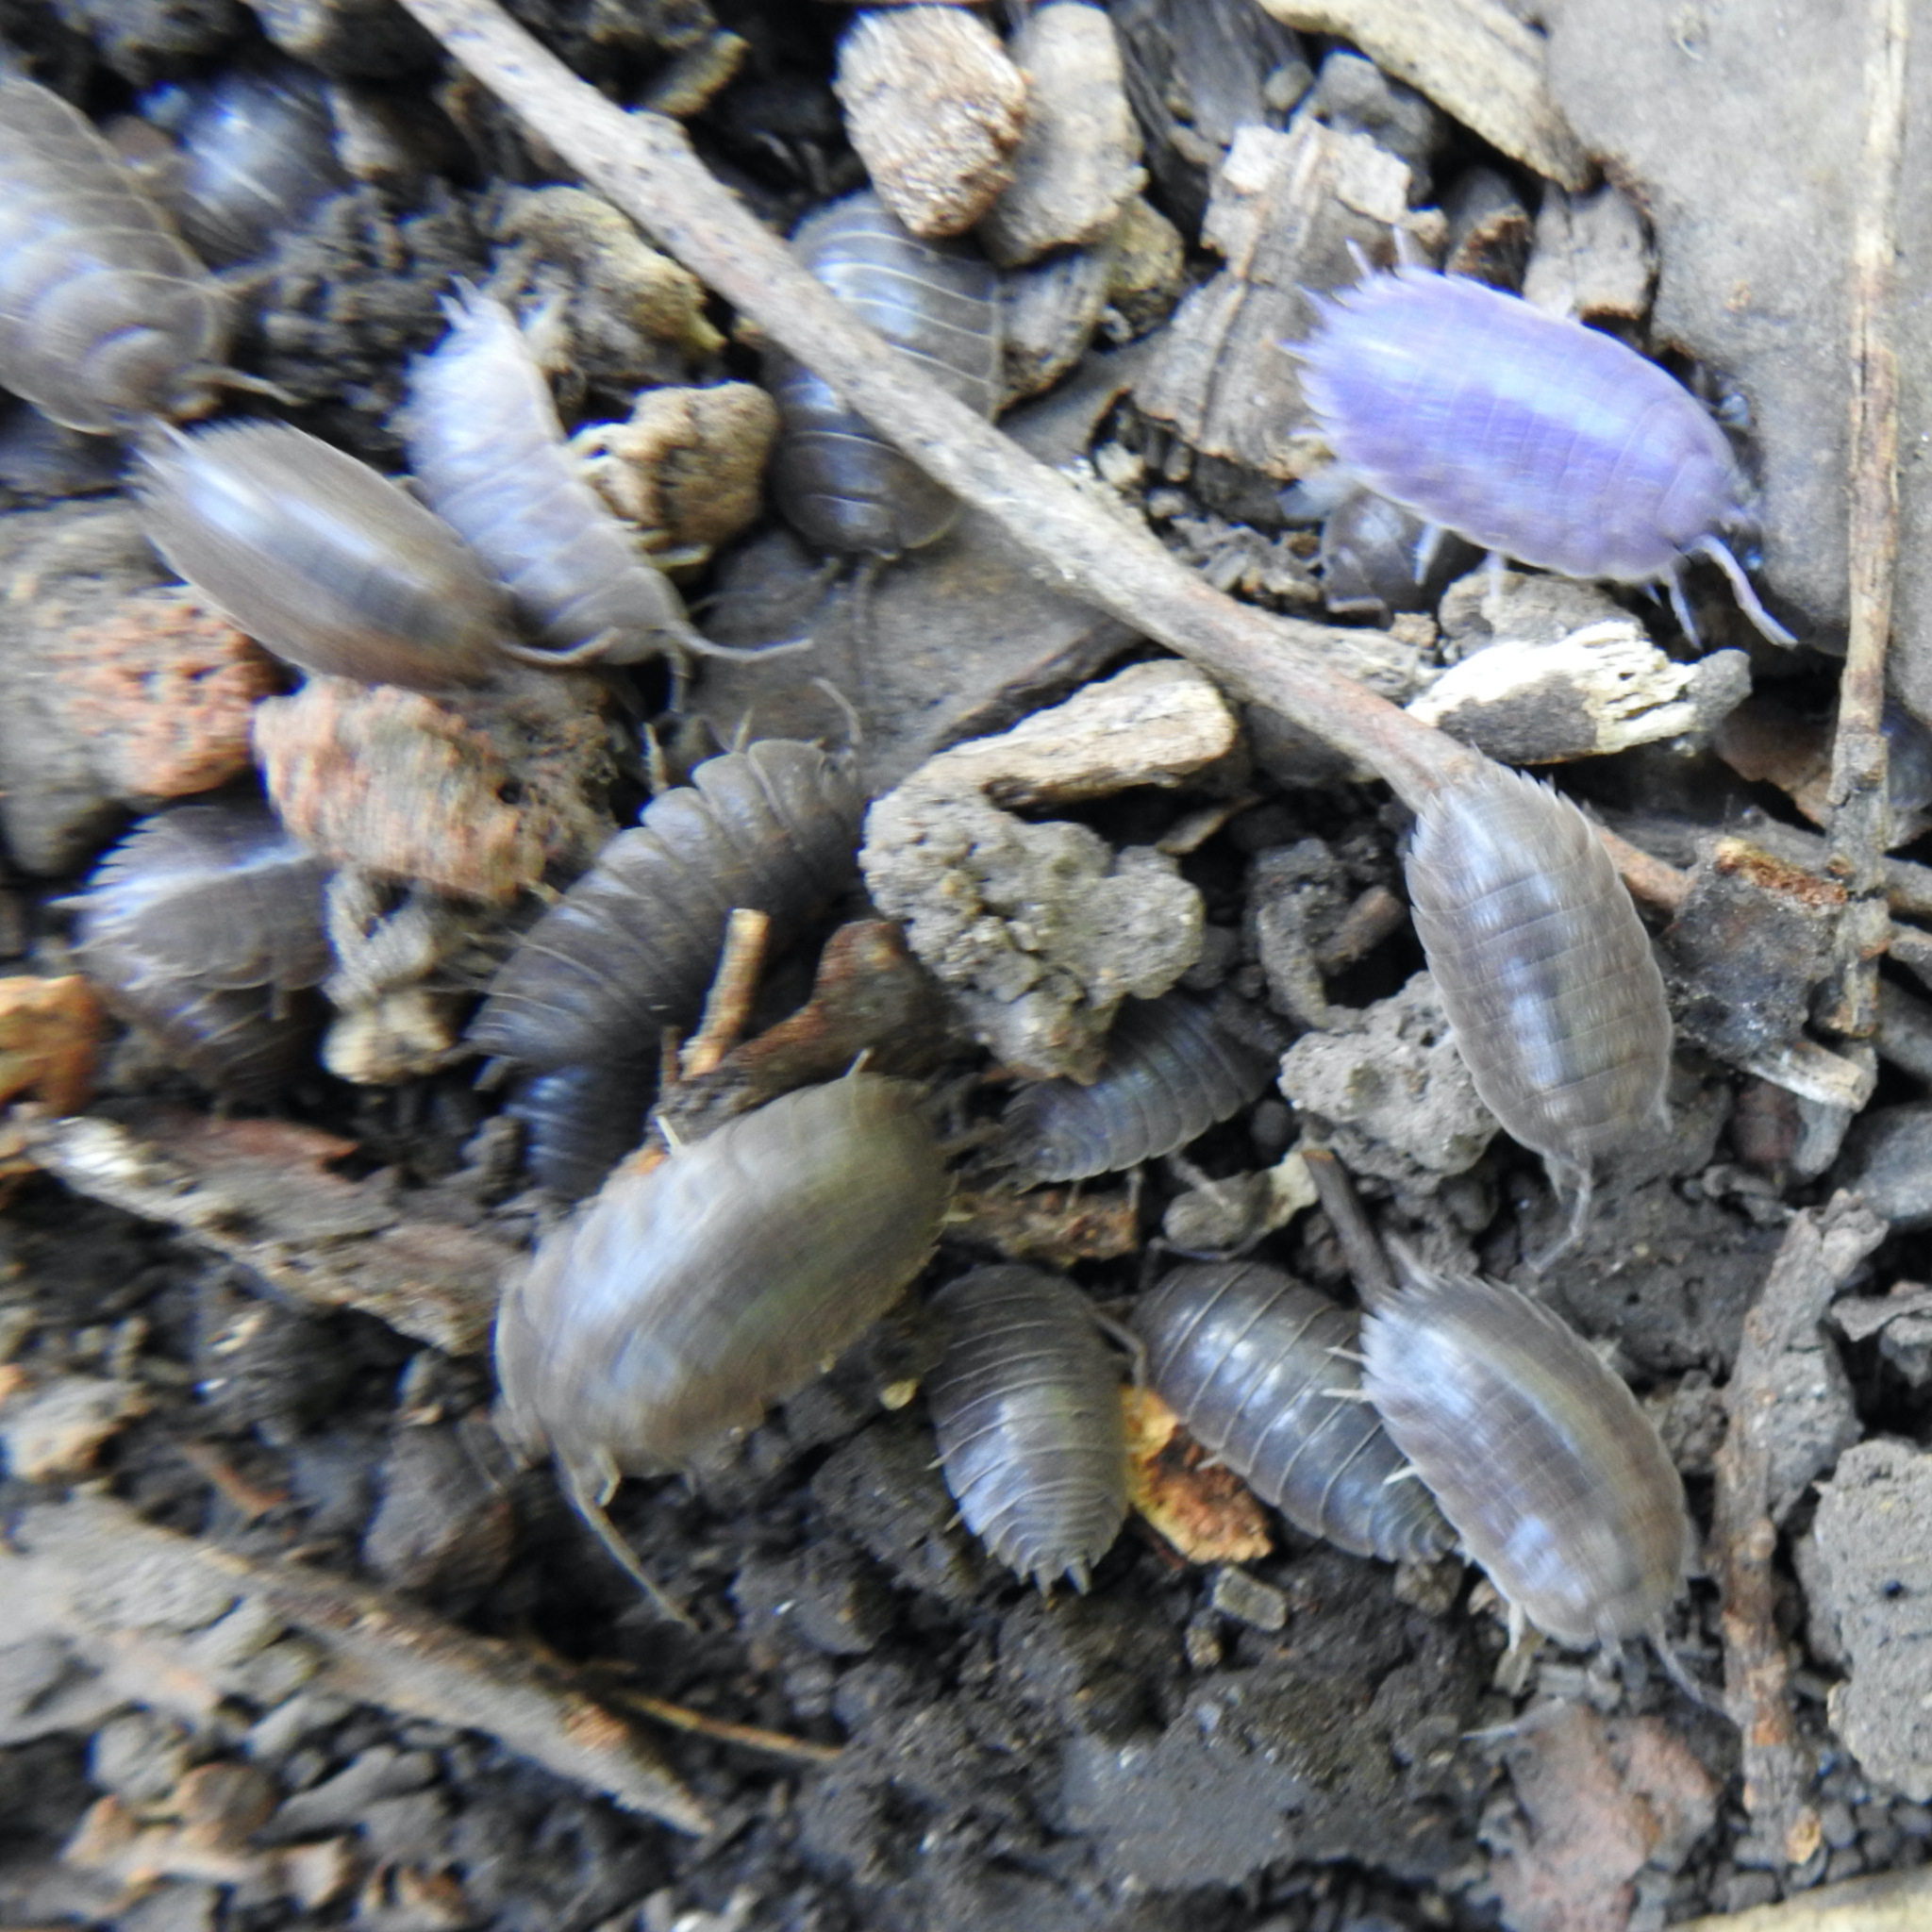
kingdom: Viruses
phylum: Nucleocytoviricota
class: Megaviricetes
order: Pimascovirales
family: Iridoviridae
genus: Iridovirus
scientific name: Iridovirus Invertebrate iridescent virus 31
